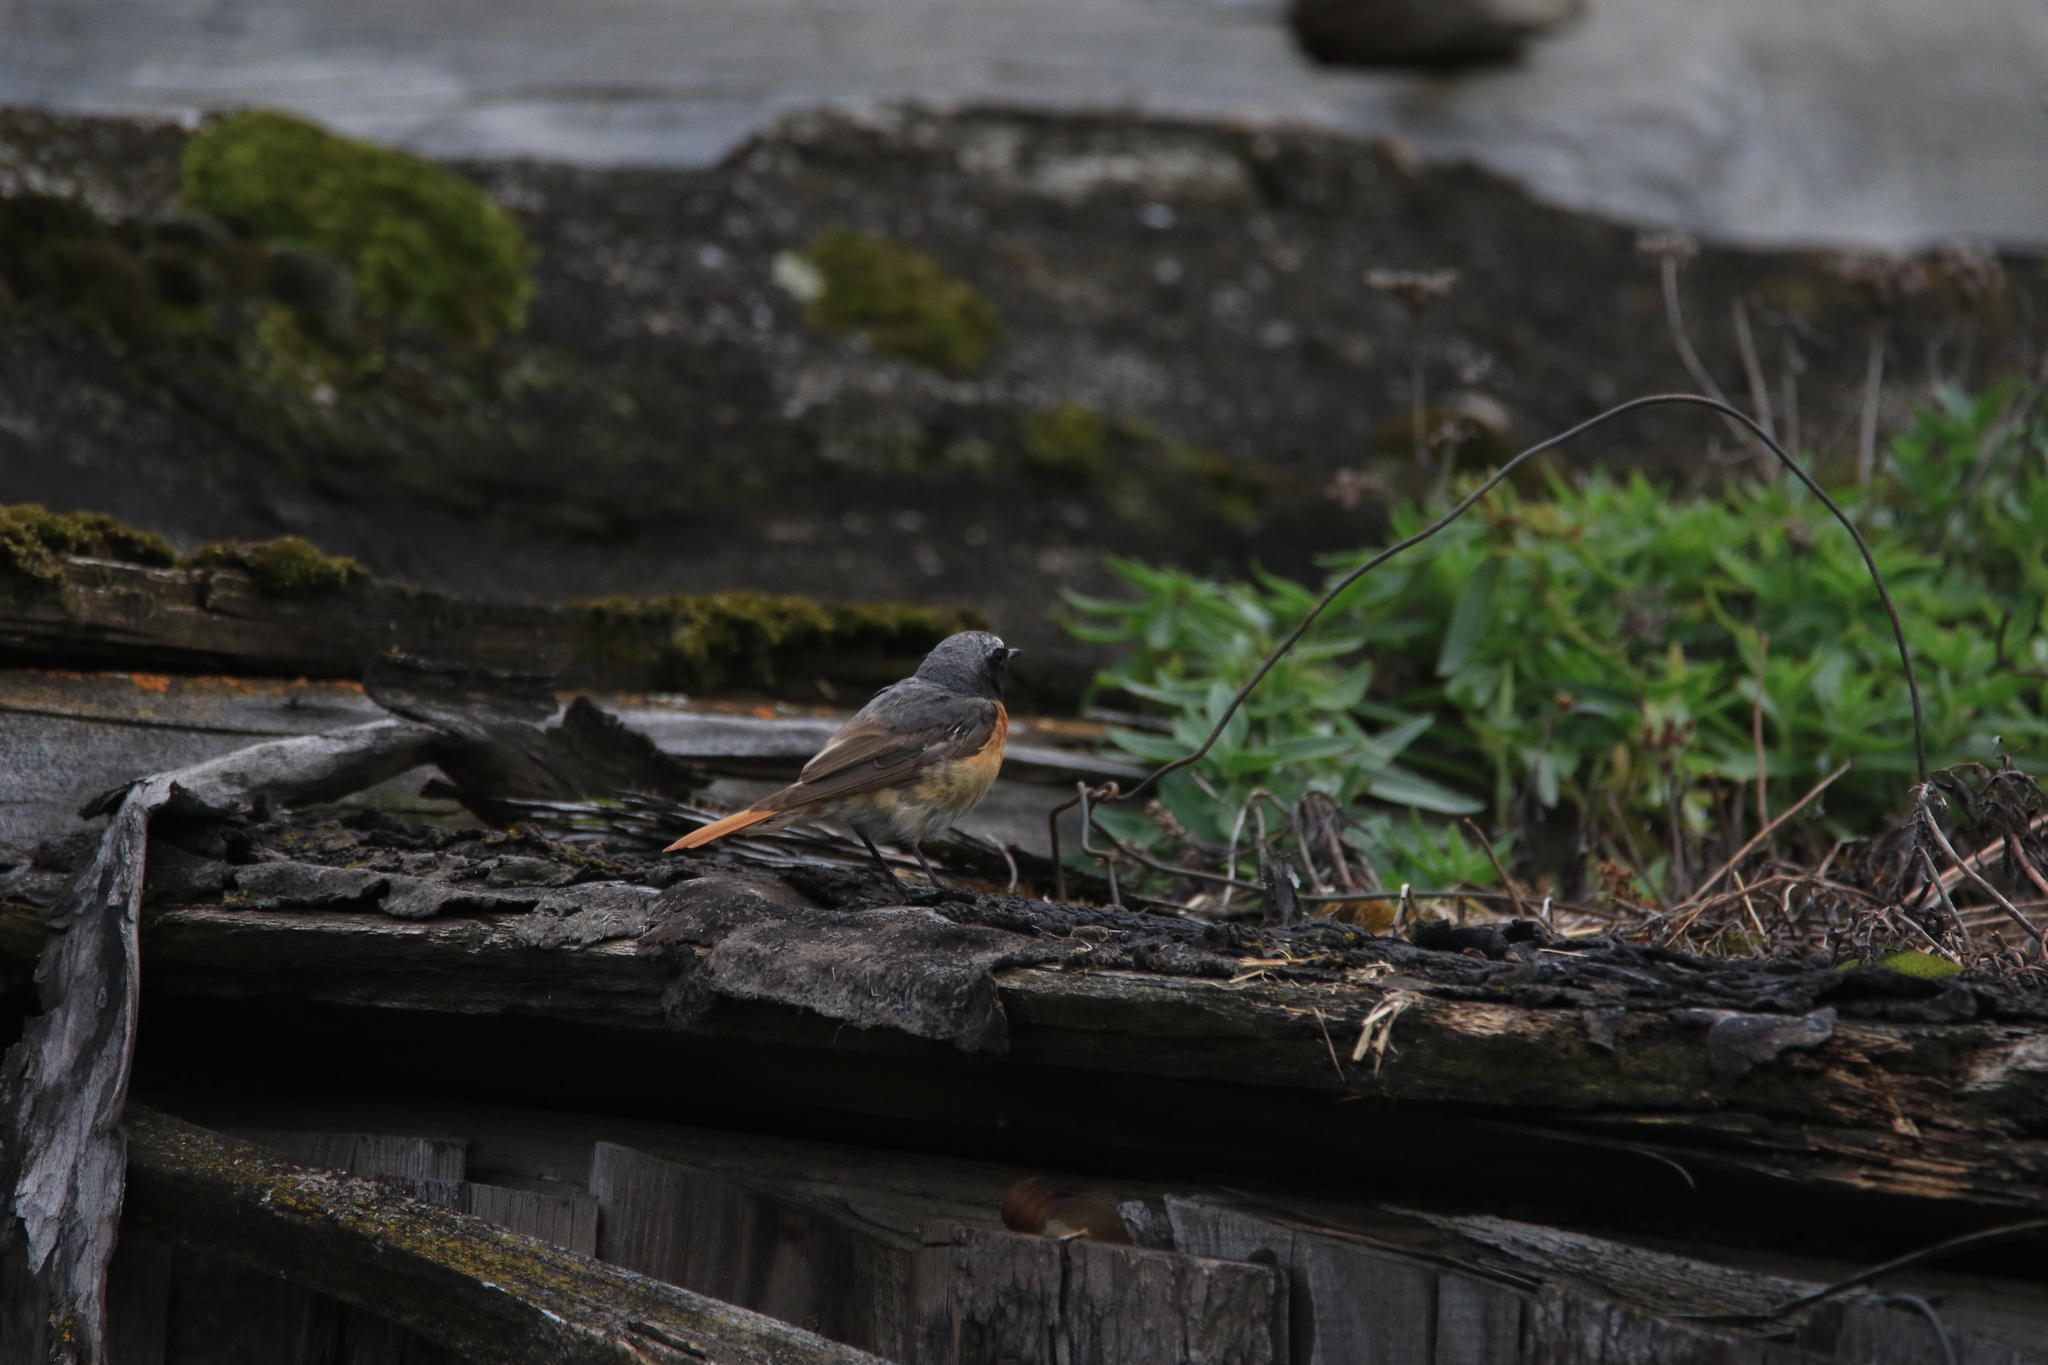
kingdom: Animalia
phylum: Chordata
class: Aves
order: Passeriformes
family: Muscicapidae
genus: Phoenicurus
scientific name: Phoenicurus phoenicurus
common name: Common redstart
